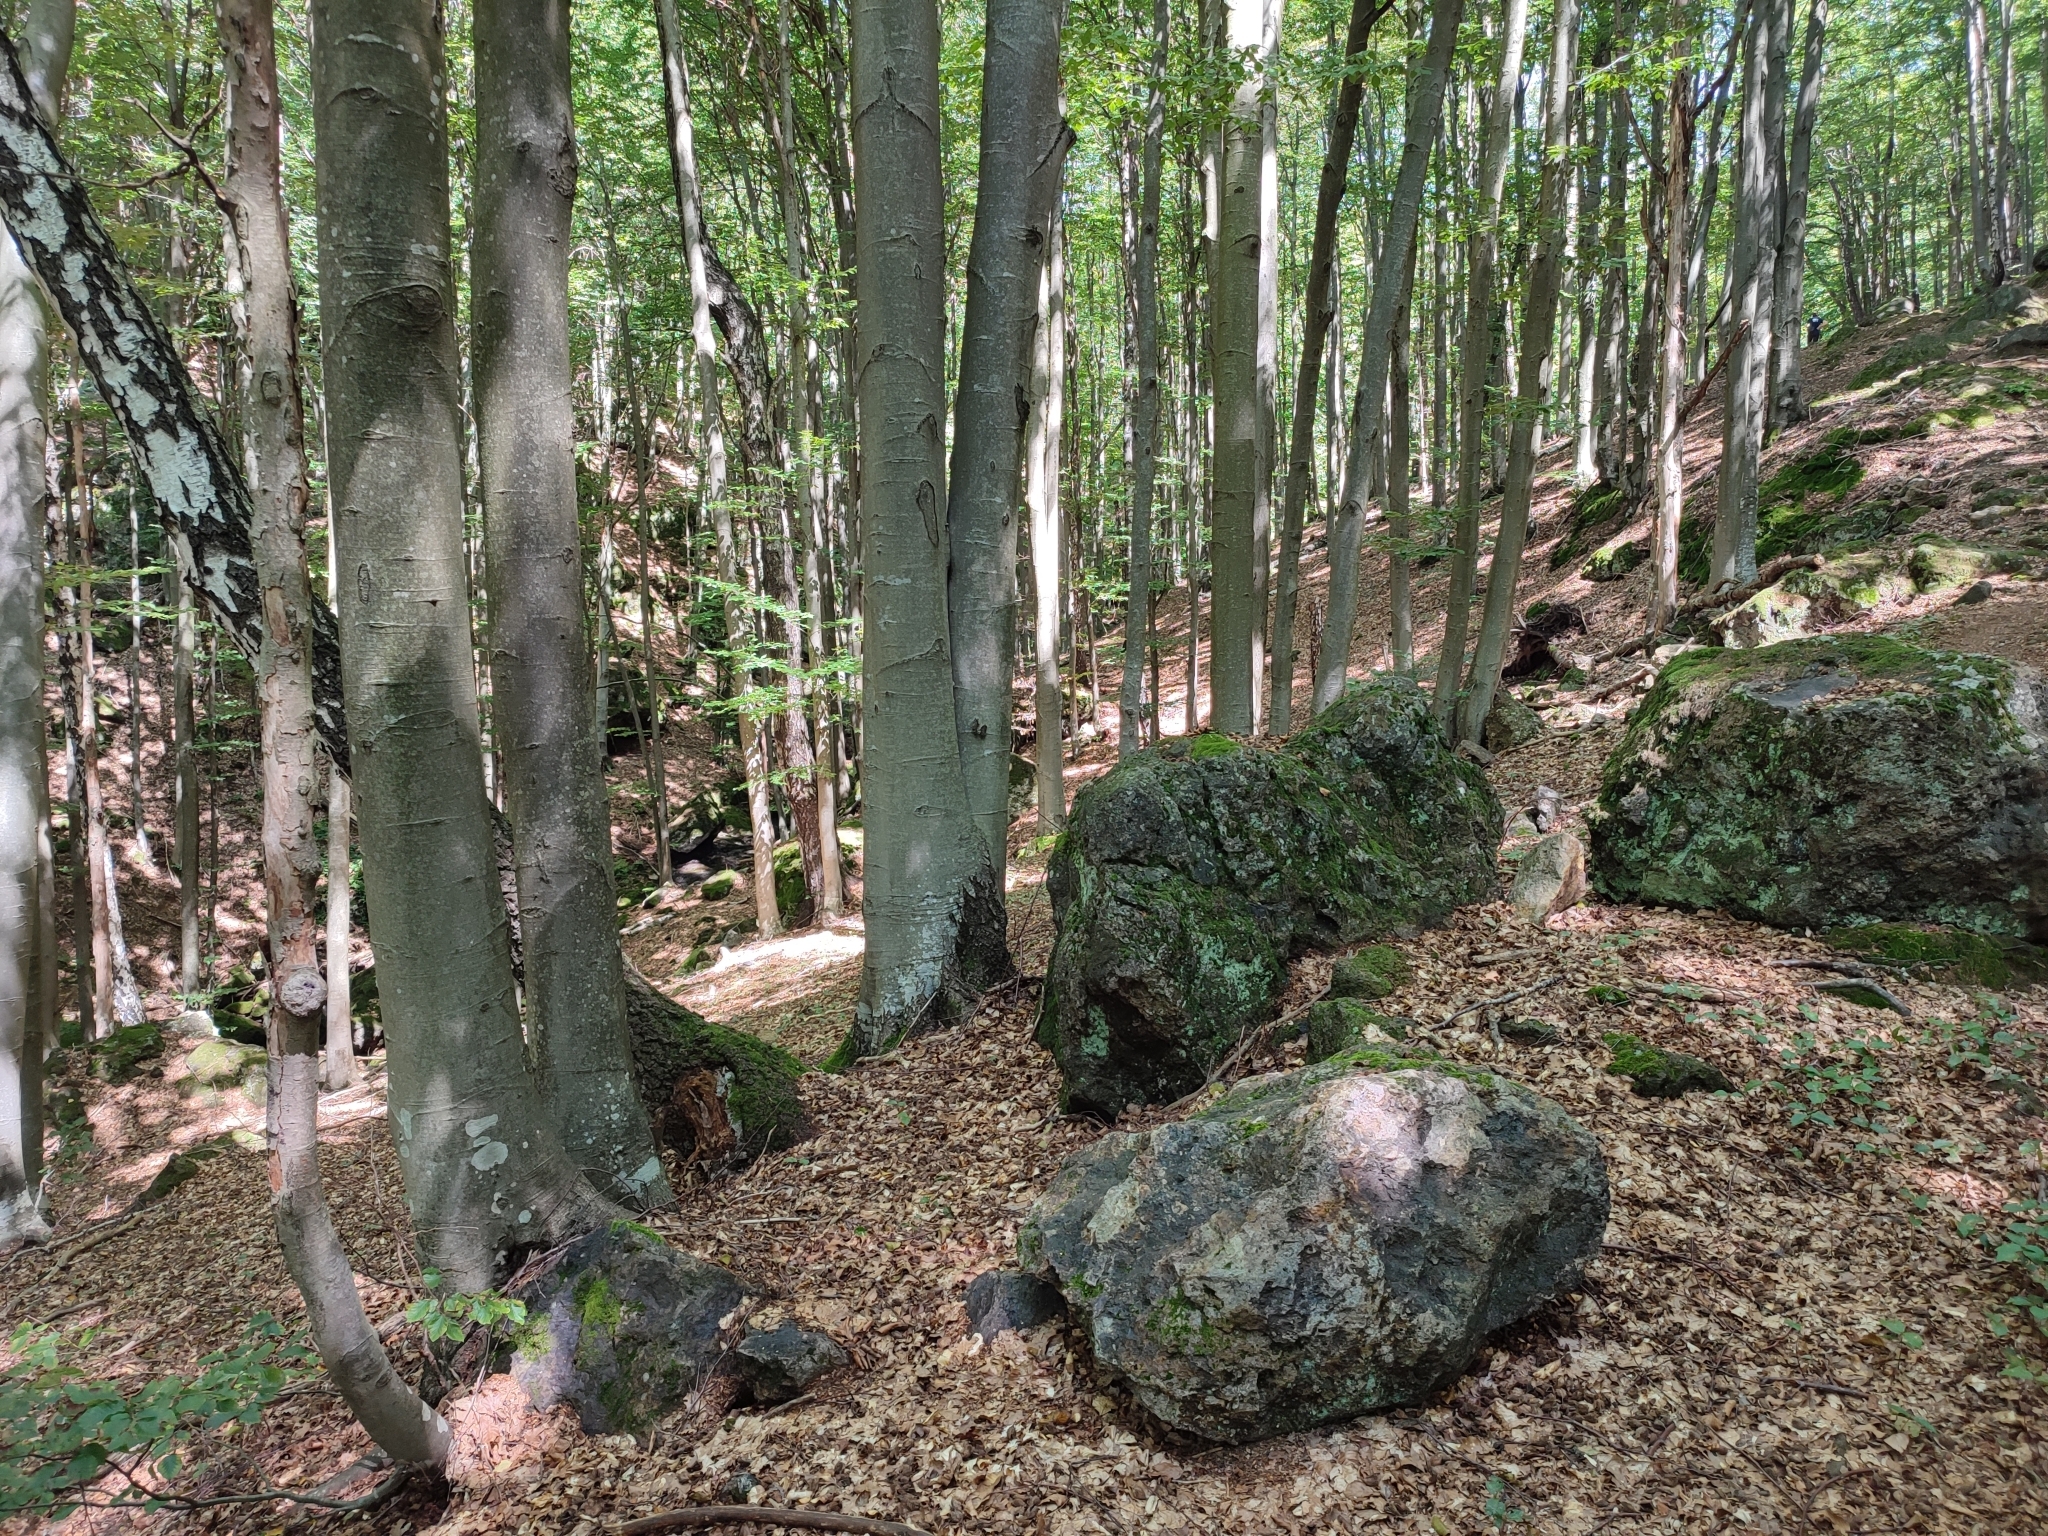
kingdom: Plantae
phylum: Tracheophyta
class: Magnoliopsida
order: Fagales
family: Fagaceae
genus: Fagus
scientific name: Fagus sylvatica
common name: Beech
